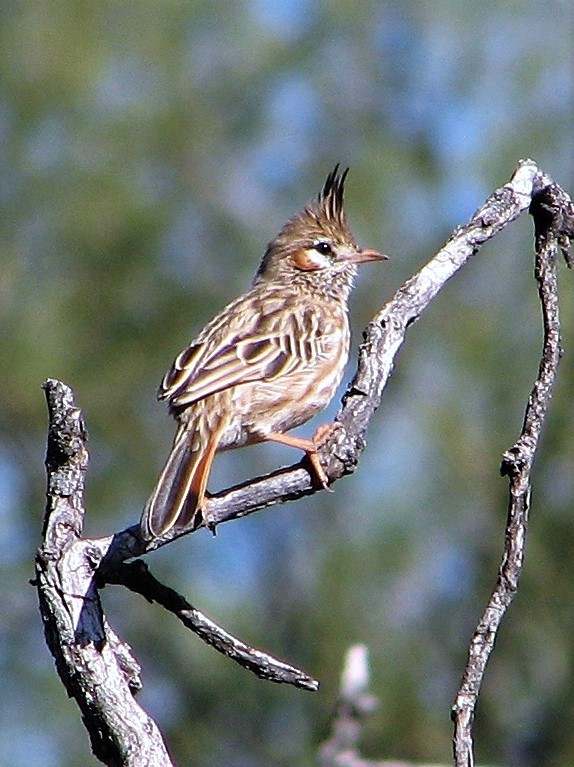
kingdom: Animalia
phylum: Chordata
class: Aves
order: Passeriformes
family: Furnariidae
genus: Coryphistera
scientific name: Coryphistera alaudina
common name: Lark-like brushrunner
